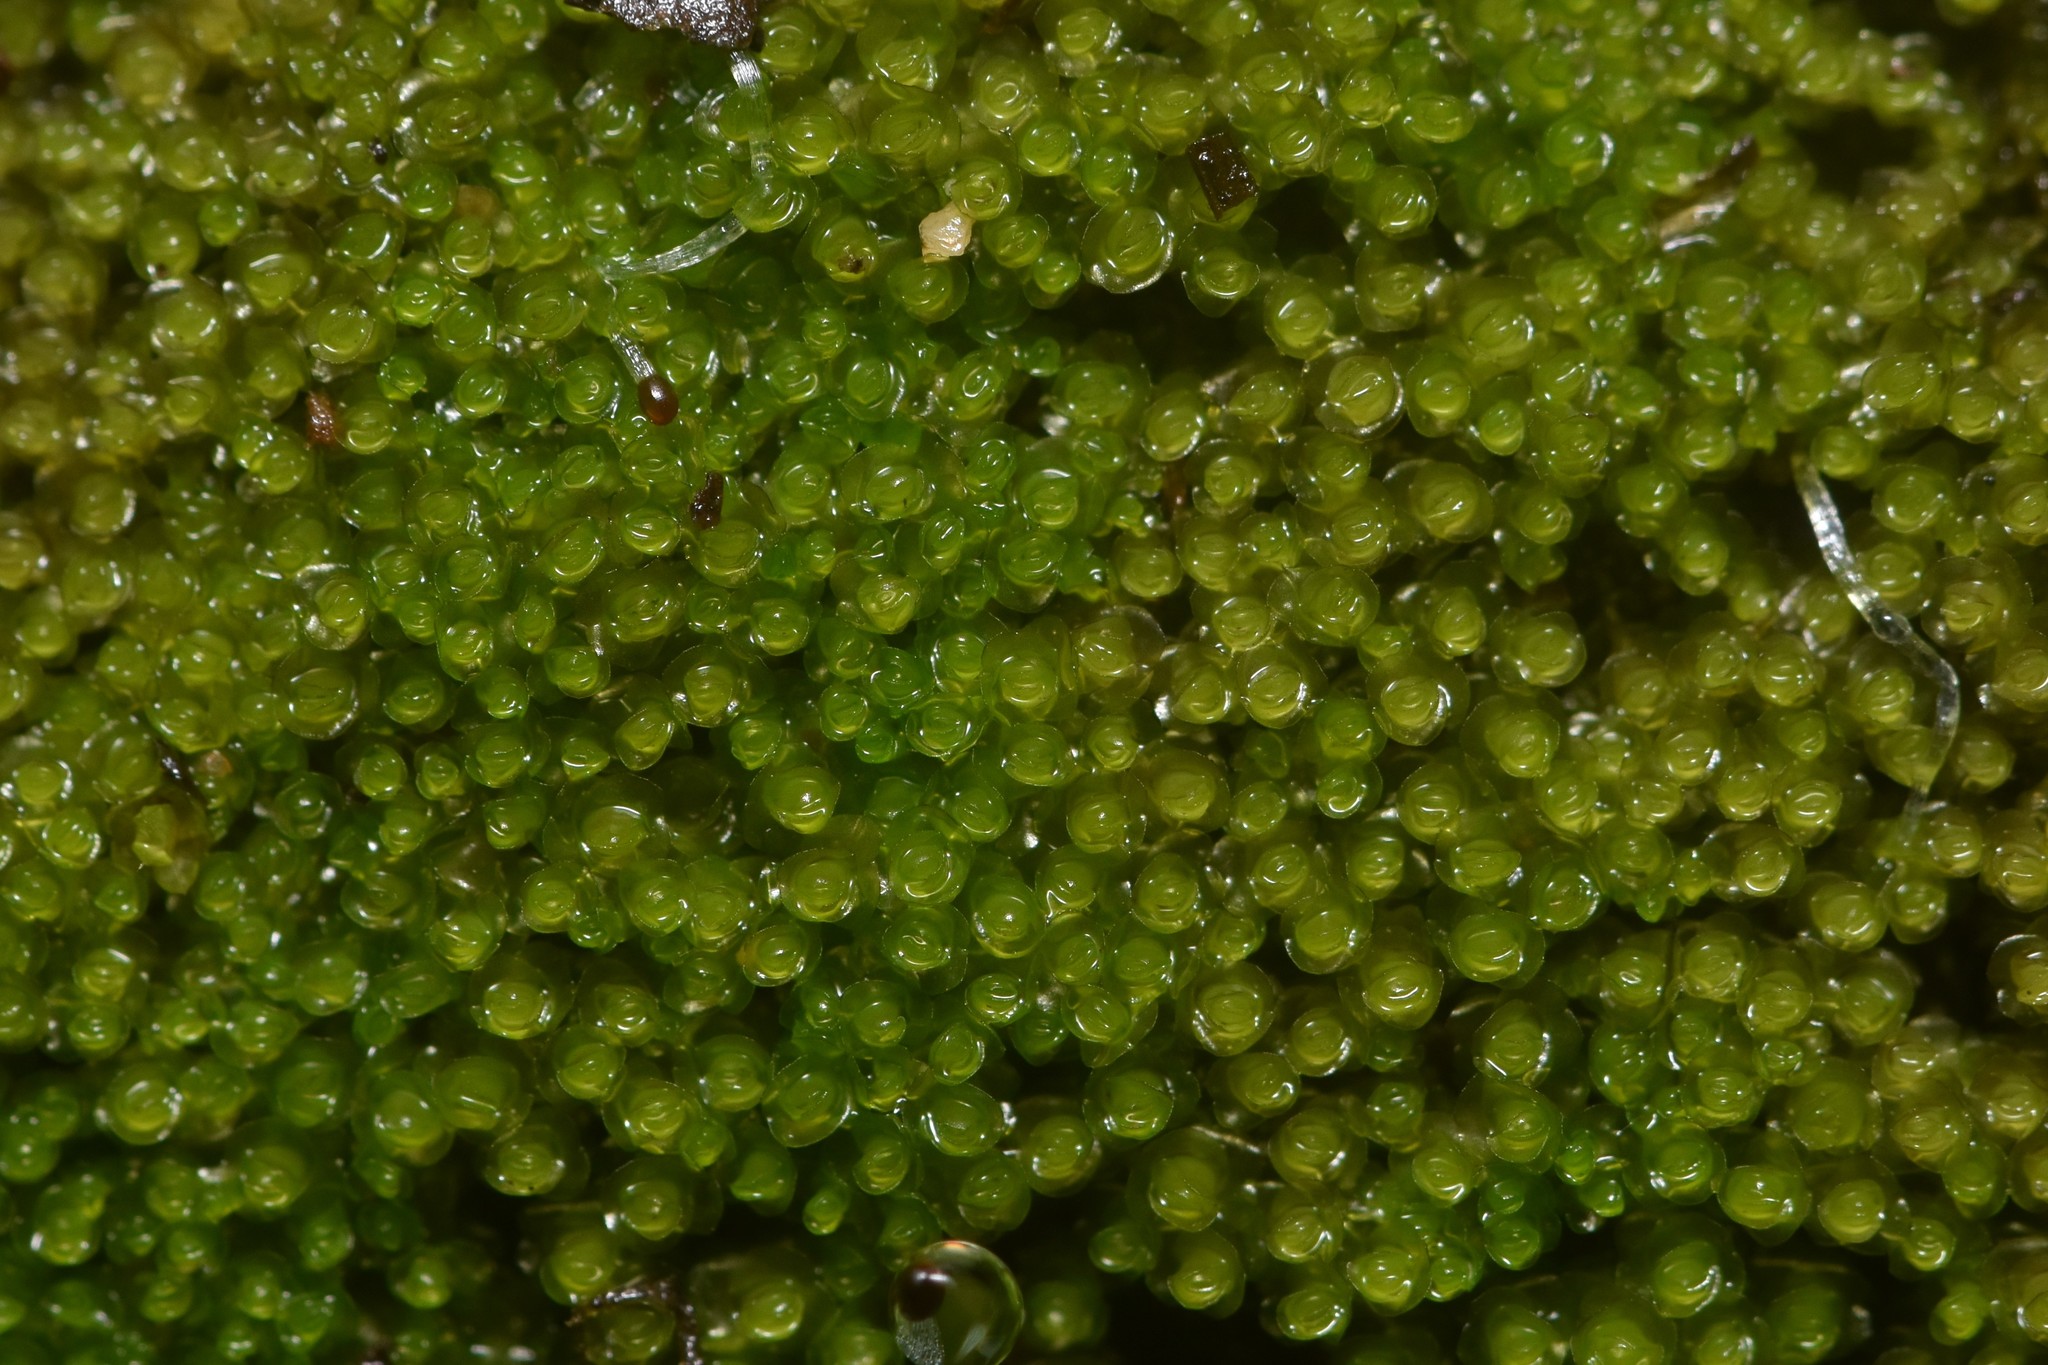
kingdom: Plantae
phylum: Marchantiophyta
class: Jungermanniopsida
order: Jungermanniales
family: Gymnomitriaceae
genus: Marsupella
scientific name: Marsupella emarginata
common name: Notched rustwort
